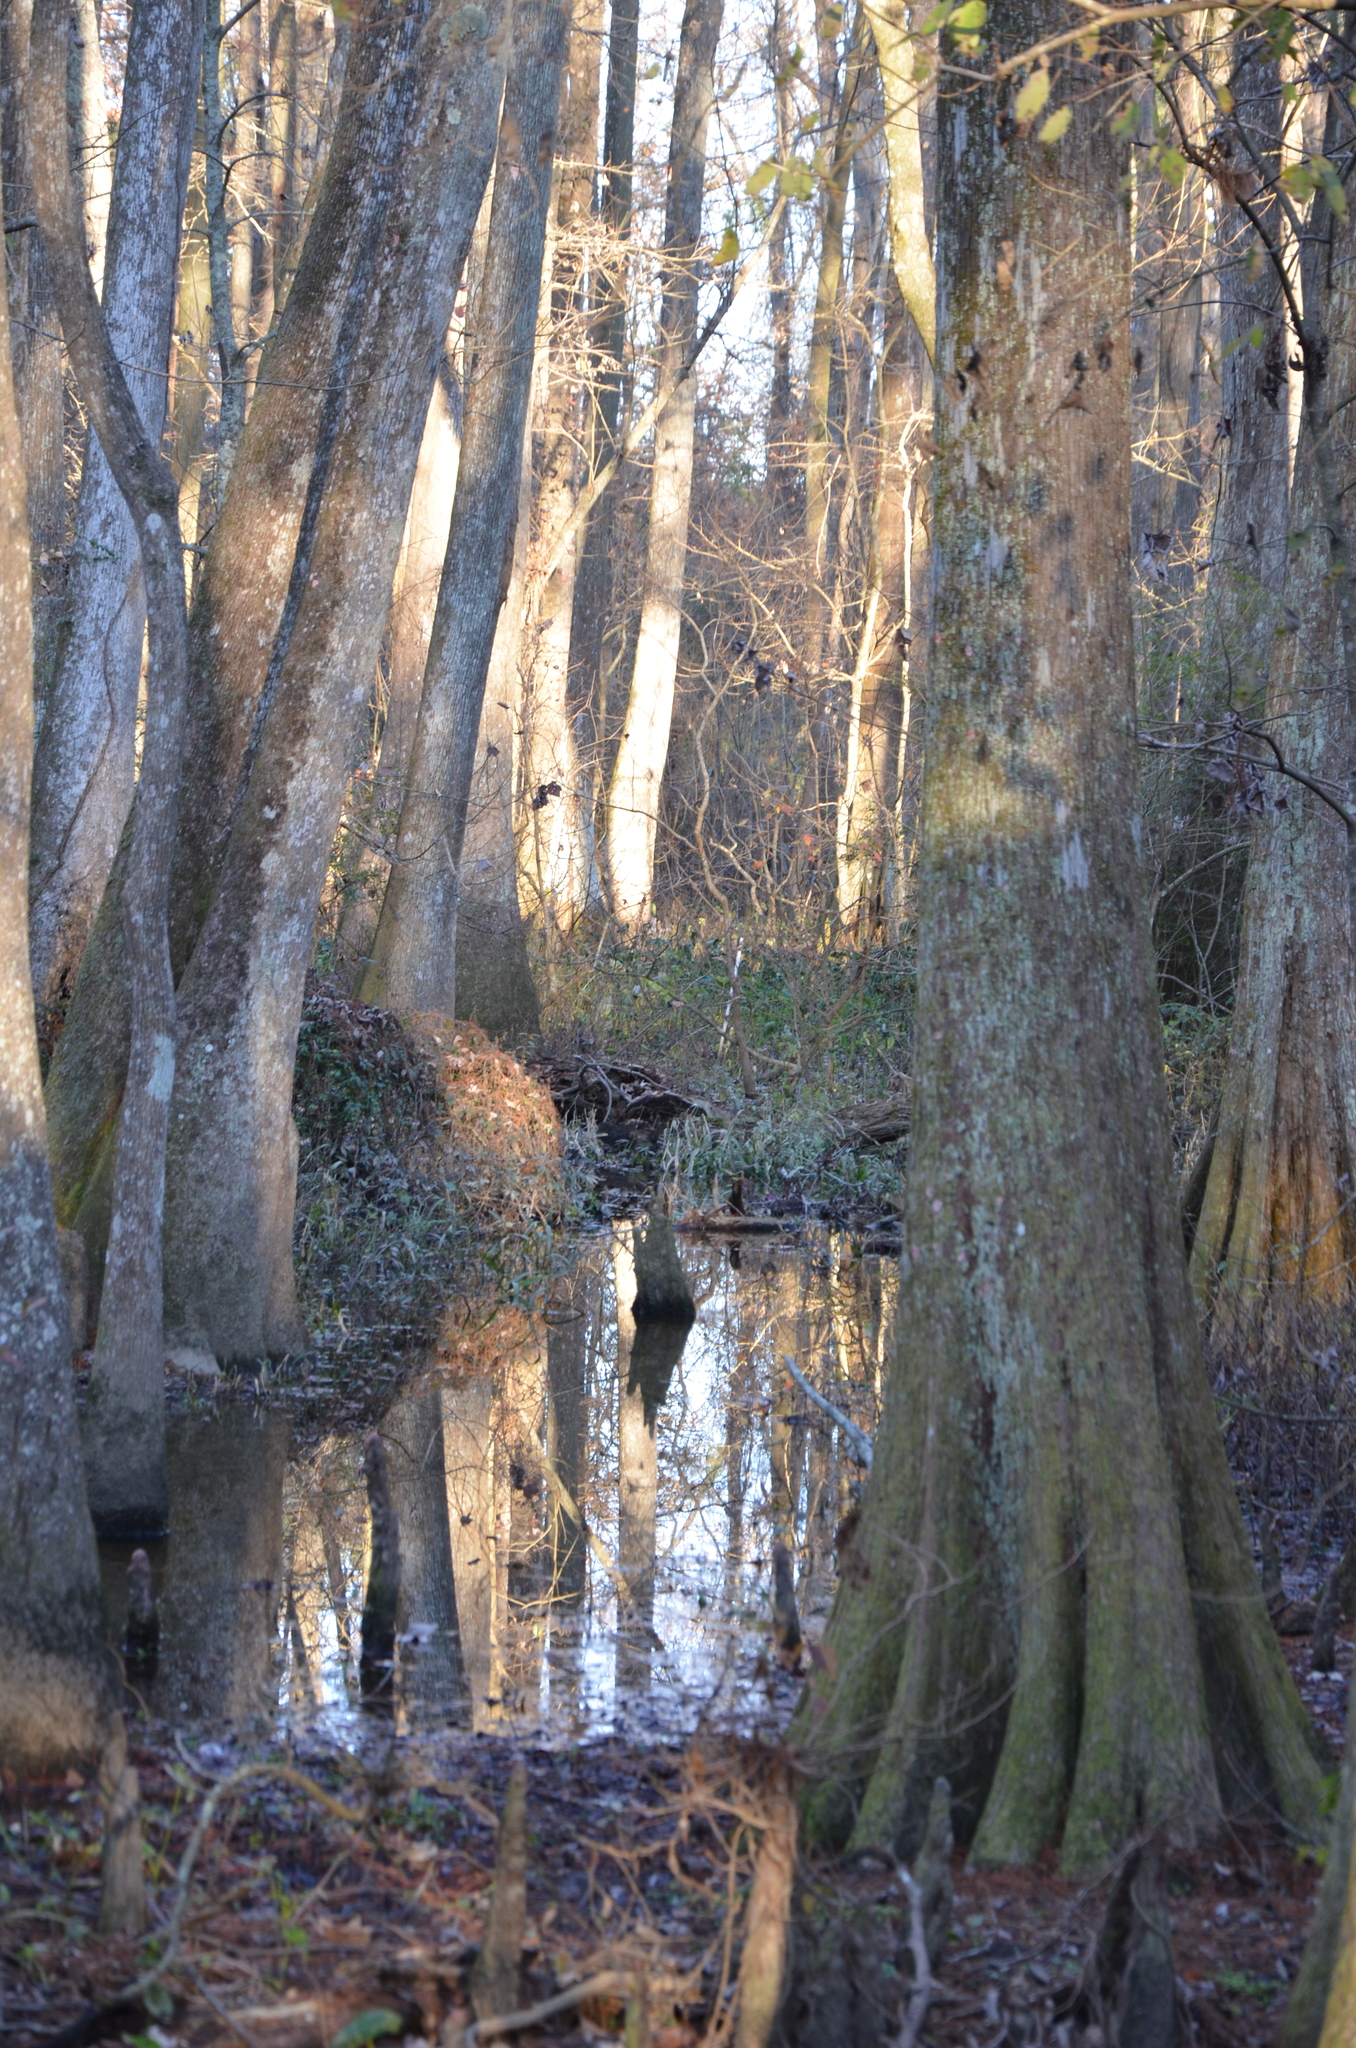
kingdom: Plantae
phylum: Tracheophyta
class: Pinopsida
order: Pinales
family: Cupressaceae
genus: Taxodium
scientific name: Taxodium distichum
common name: Bald cypress
